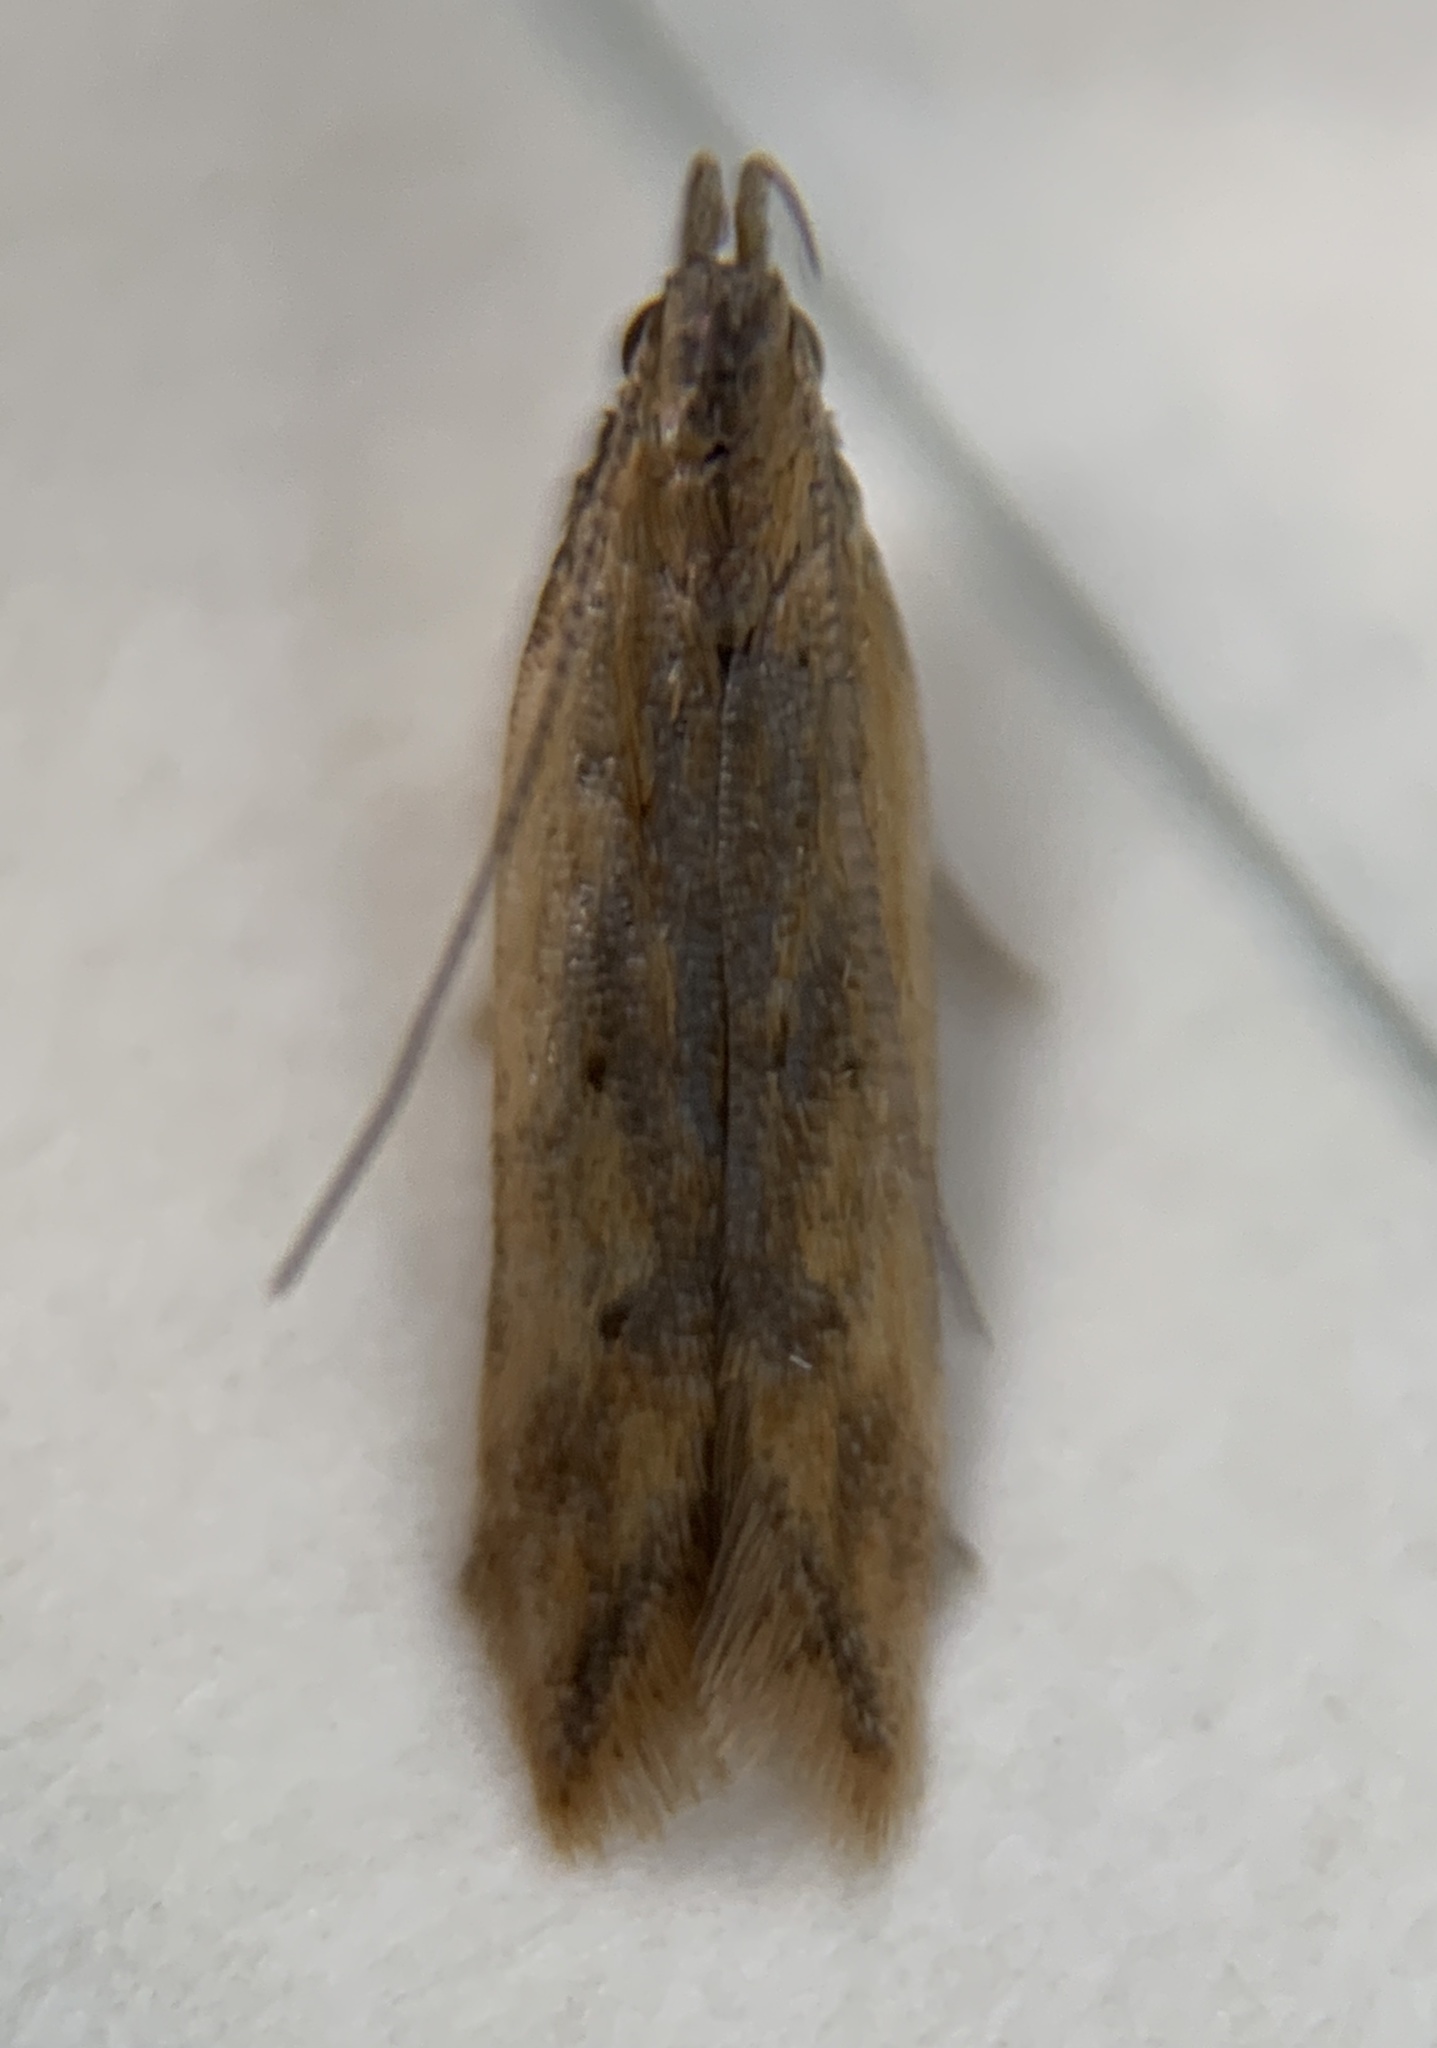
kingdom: Animalia
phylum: Arthropoda
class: Insecta
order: Lepidoptera
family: Gelechiidae
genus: Dichomeris
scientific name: Dichomeris acuminatus
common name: Alfalfa leaf tier
